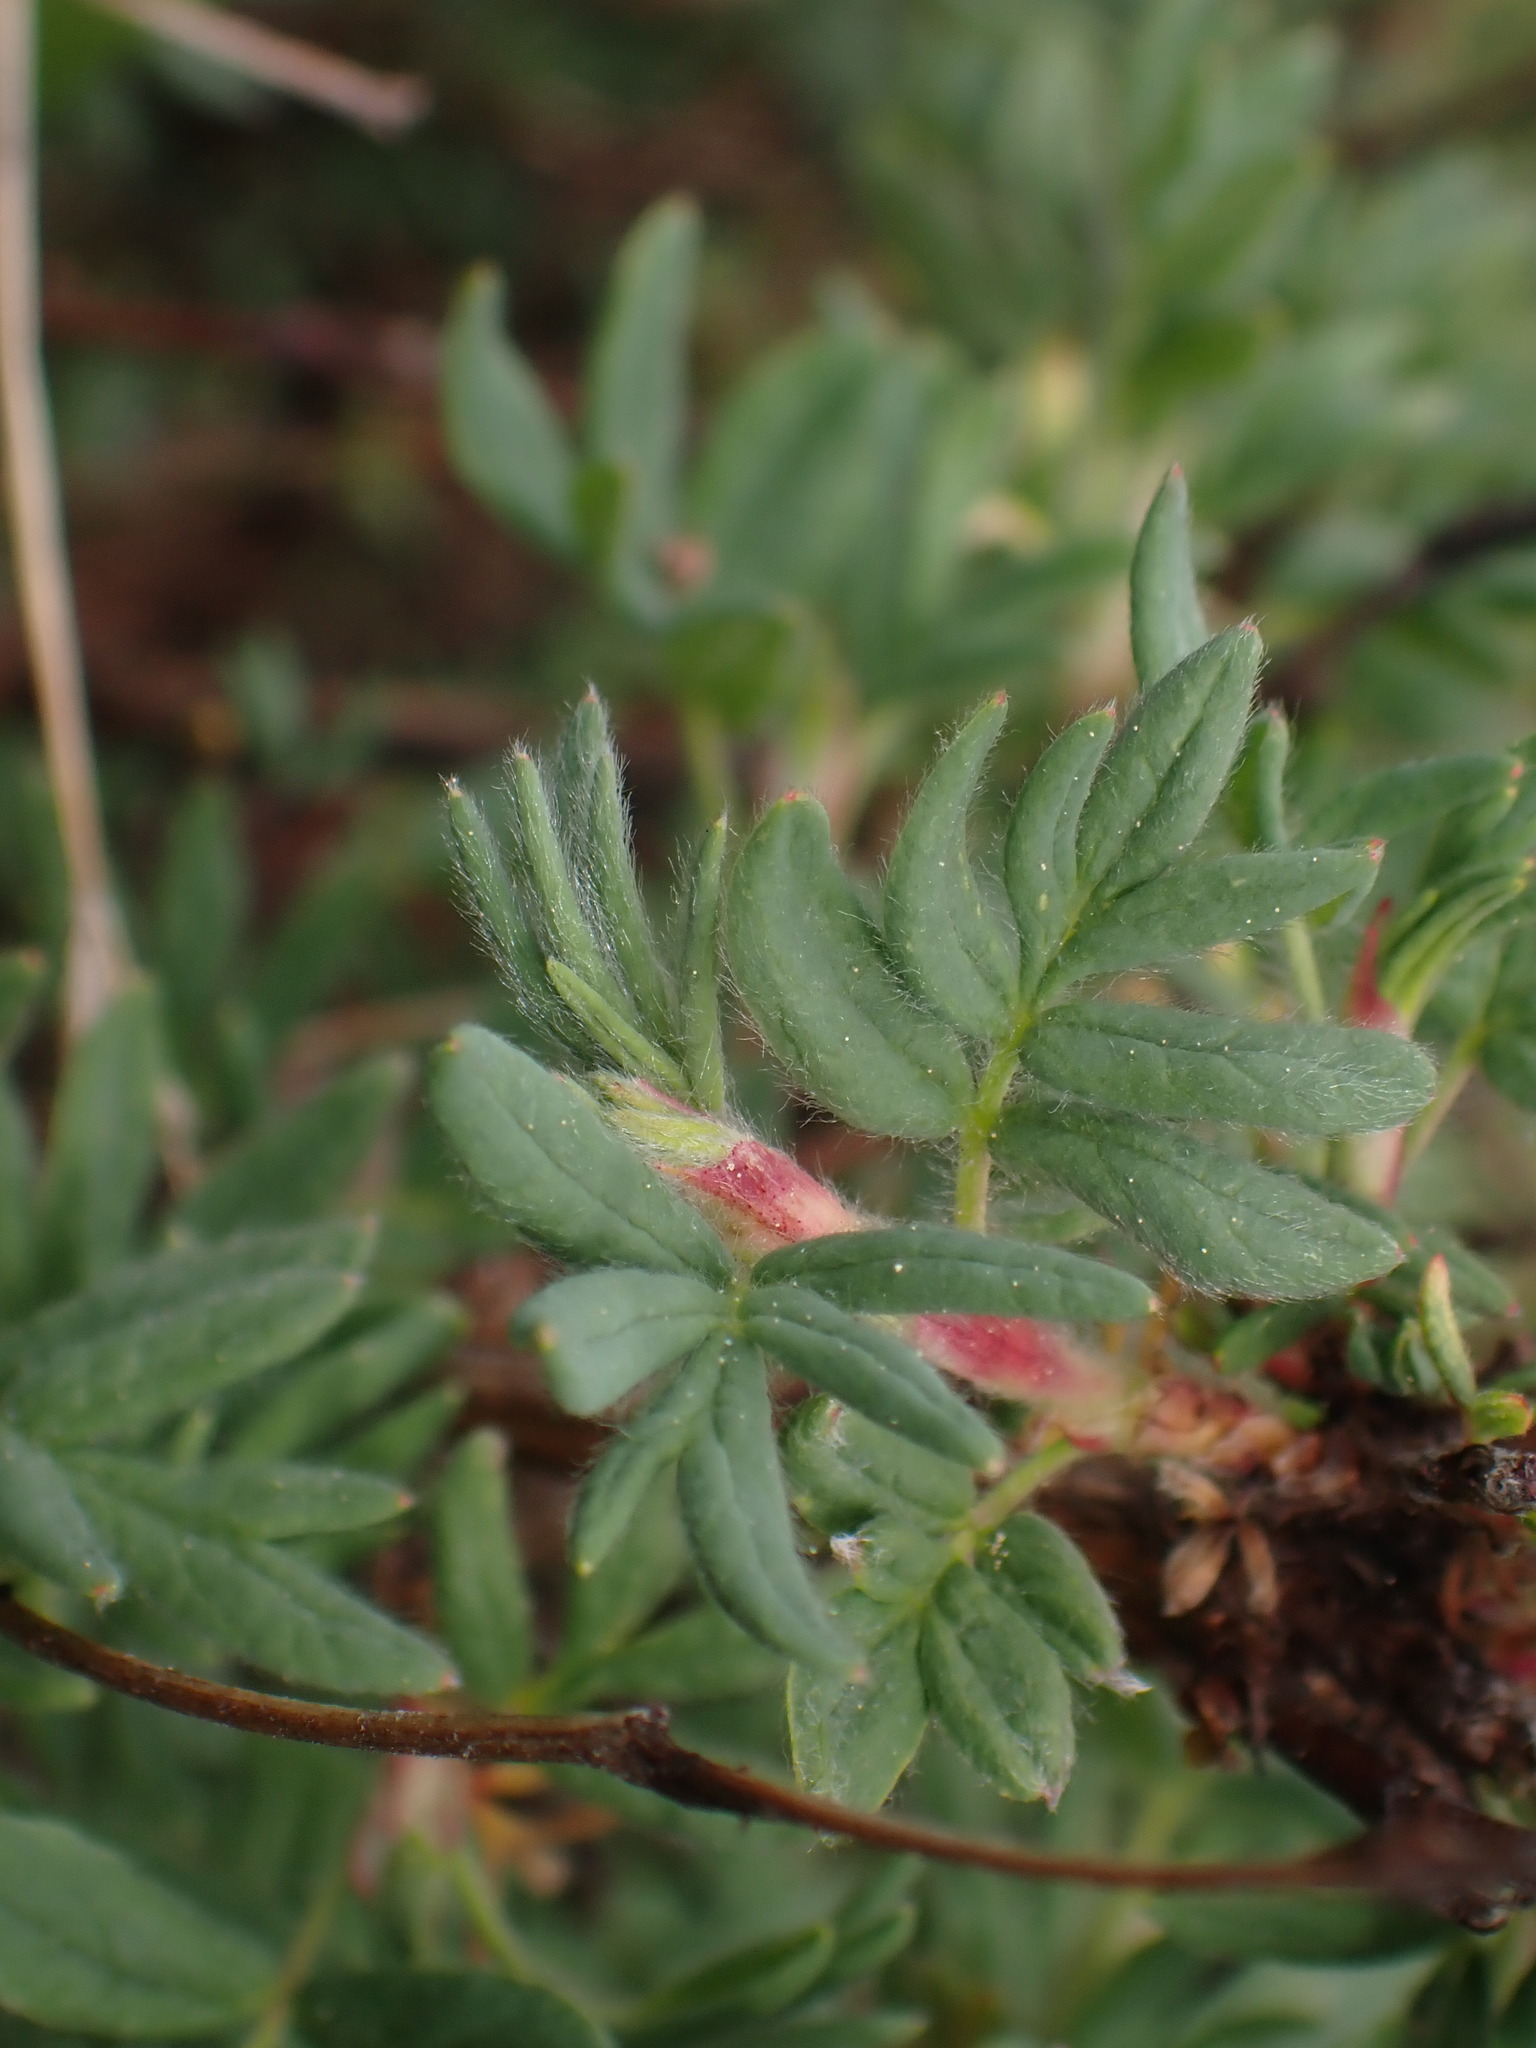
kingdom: Plantae
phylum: Tracheophyta
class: Magnoliopsida
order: Rosales
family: Rosaceae
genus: Dasiphora
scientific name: Dasiphora fruticosa
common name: Shrubby cinquefoil
